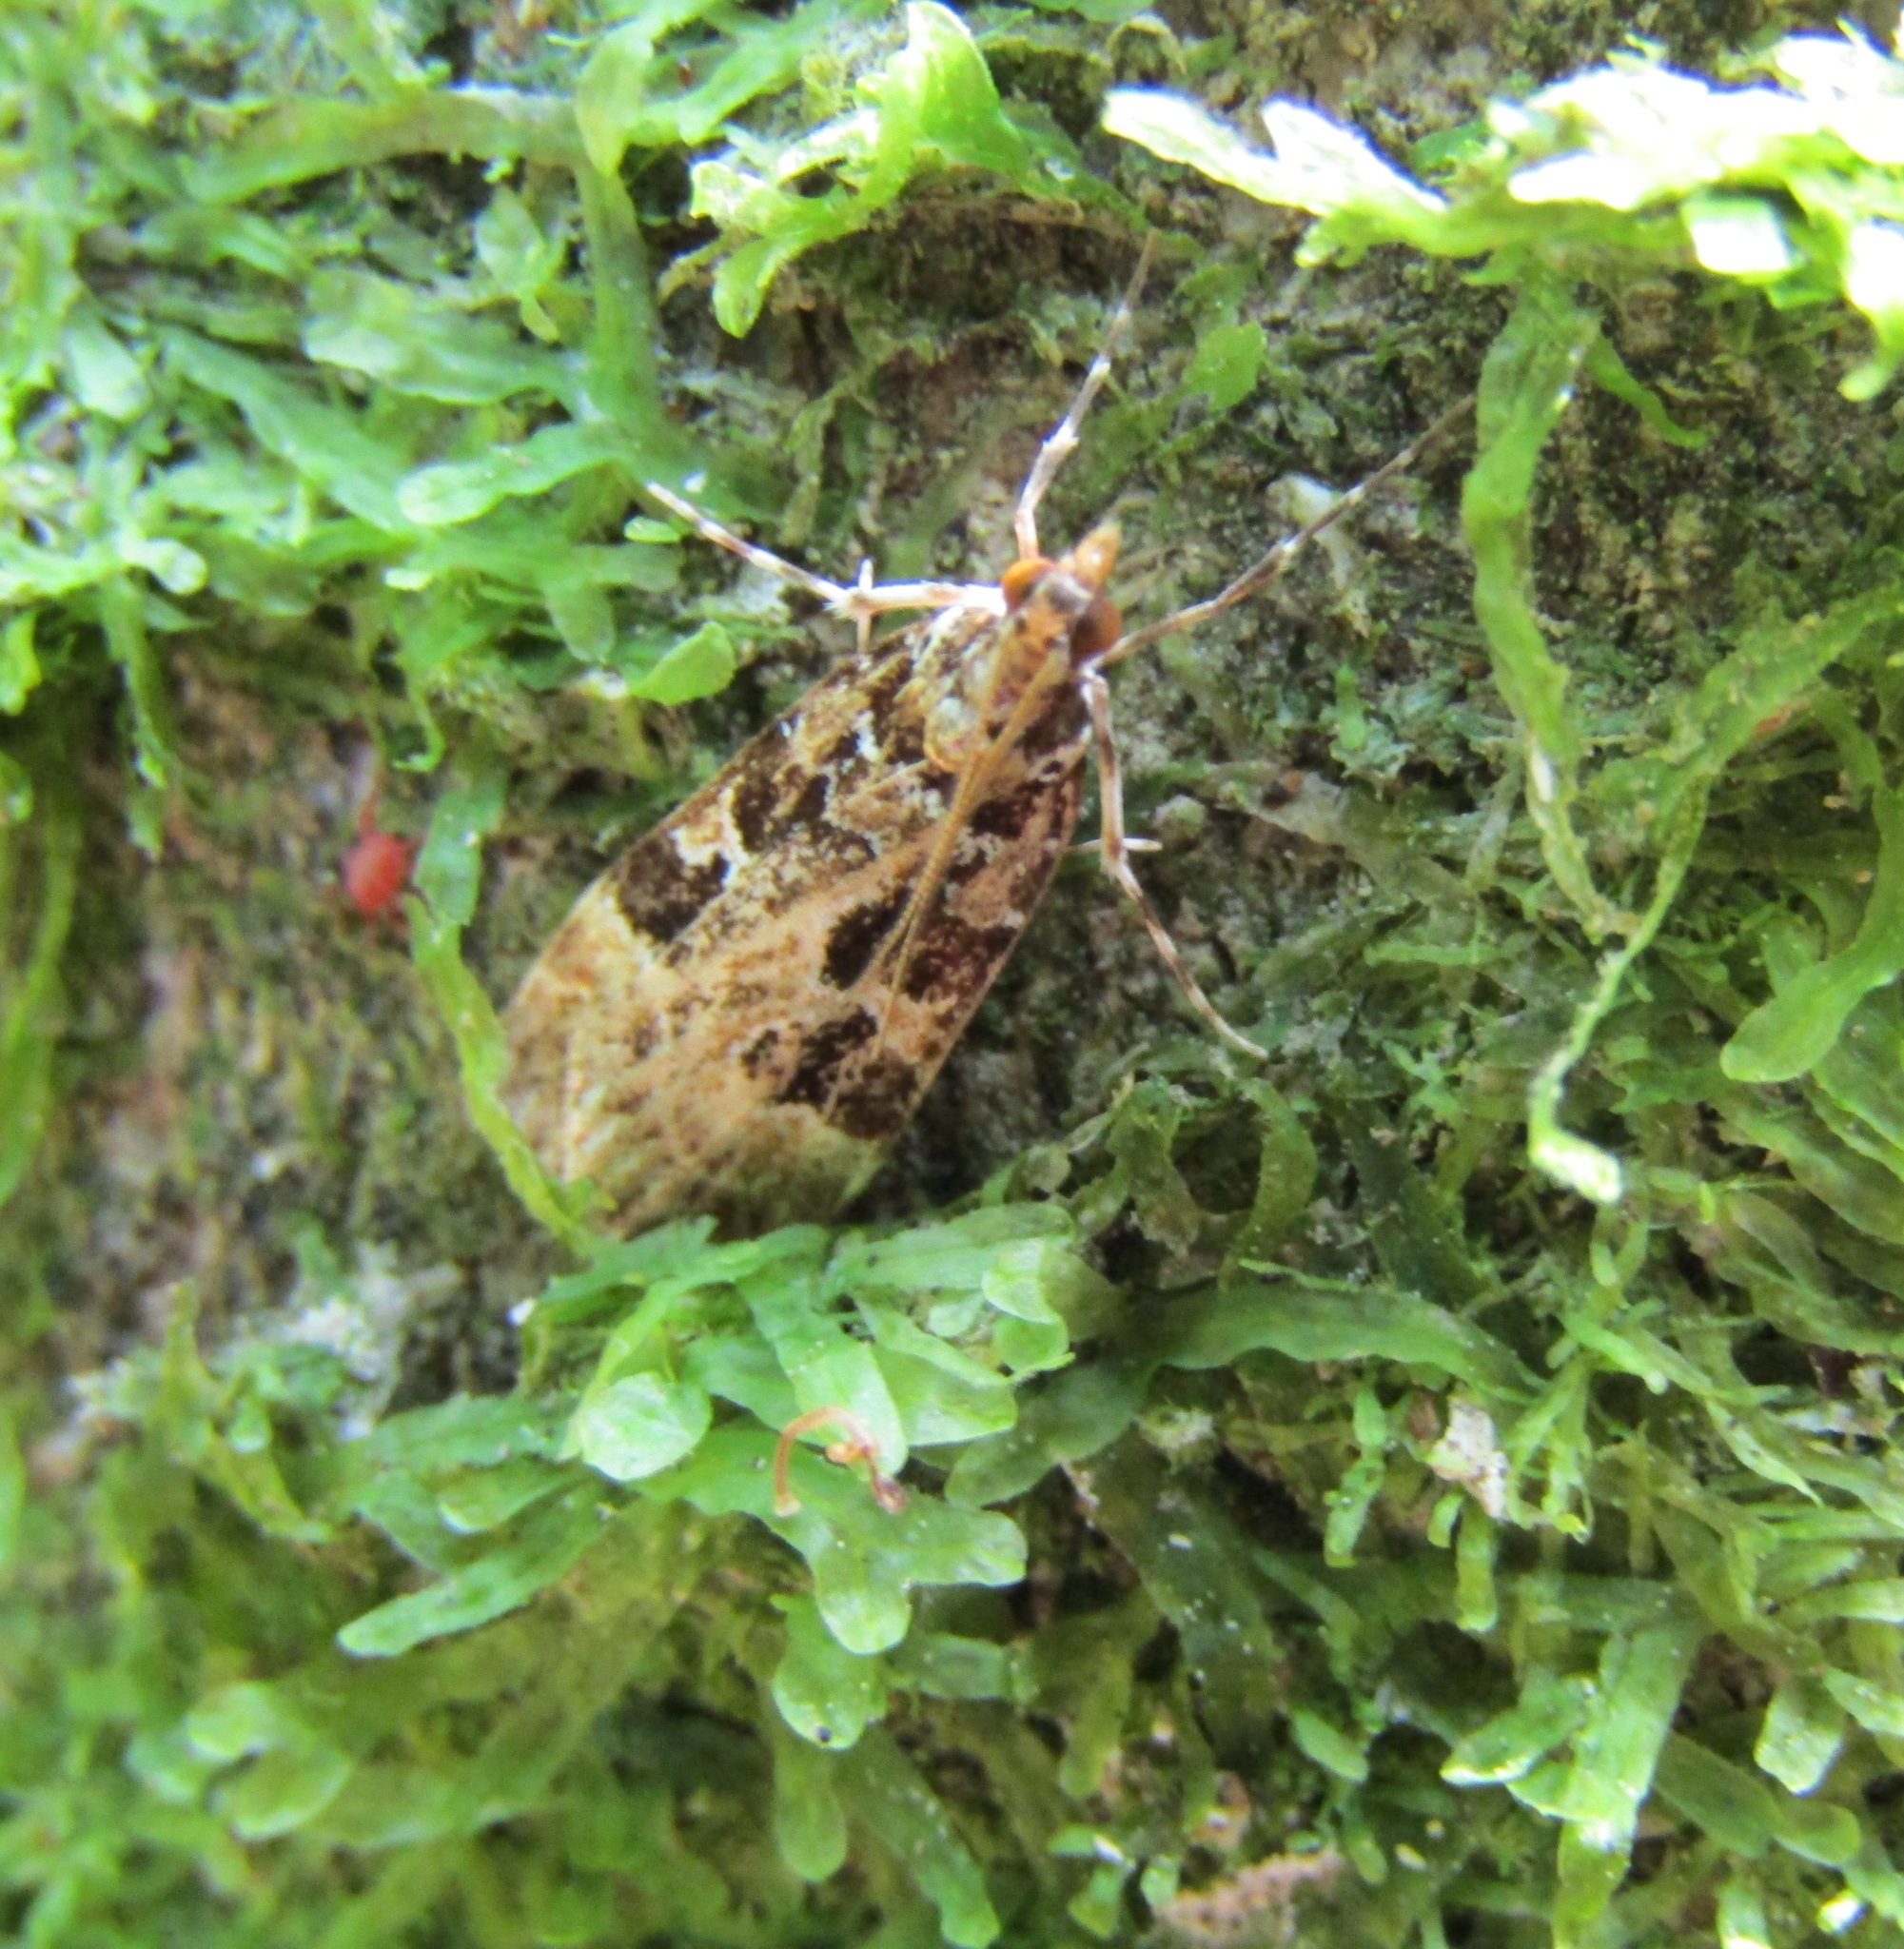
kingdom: Animalia
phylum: Arthropoda
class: Insecta
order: Lepidoptera
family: Crambidae
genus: Scoparia
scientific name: Scoparia ustimacula
